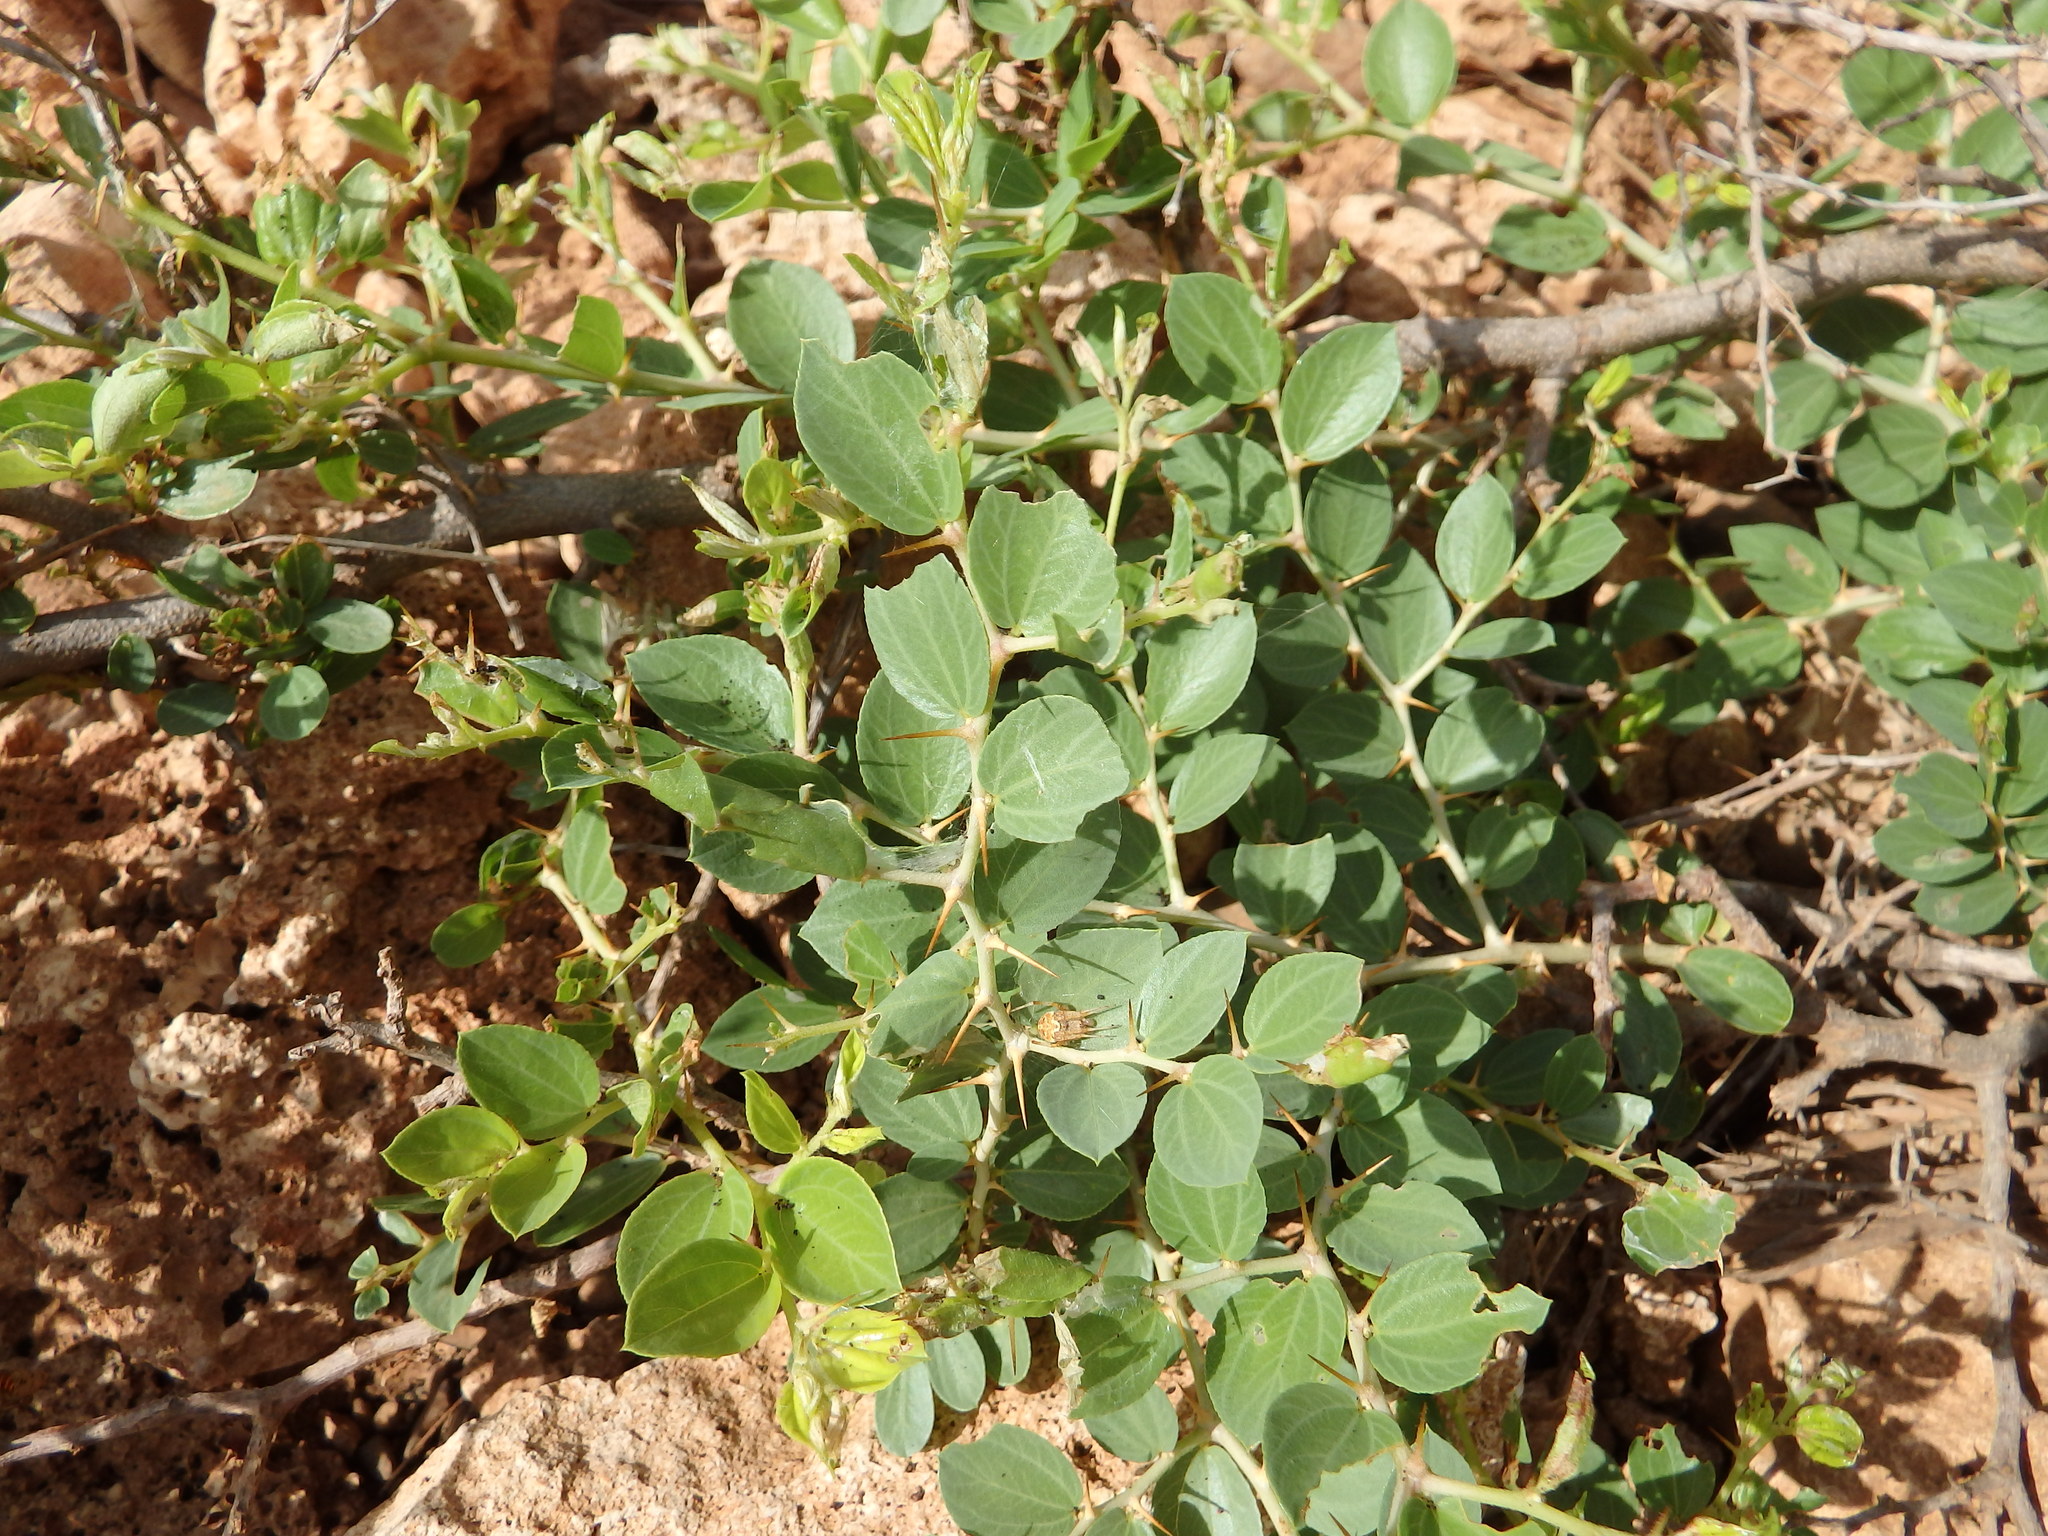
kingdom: Plantae
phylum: Tracheophyta
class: Magnoliopsida
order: Rosales
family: Rhamnaceae
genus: Ziziphus
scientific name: Ziziphus mauritiana
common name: Indian jujube
